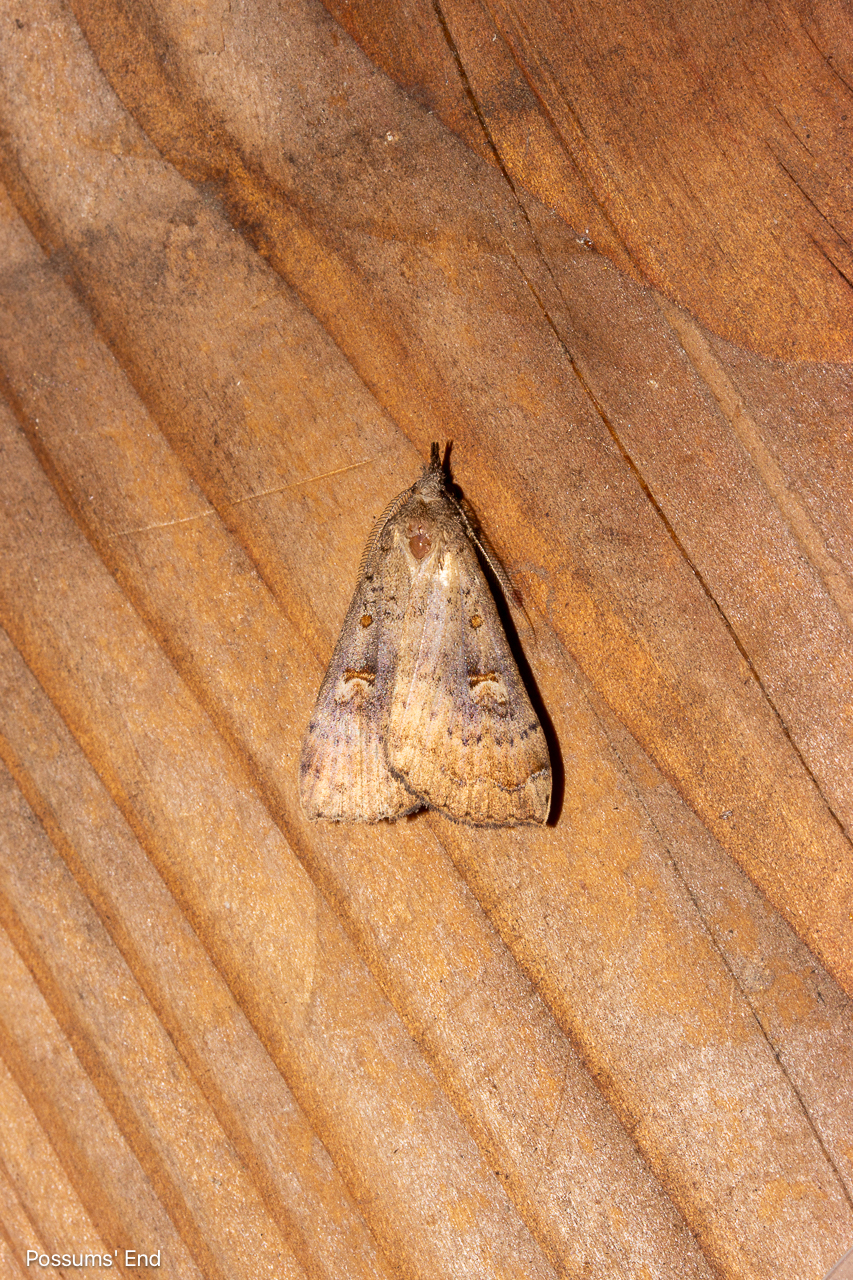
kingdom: Animalia
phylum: Arthropoda
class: Insecta
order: Lepidoptera
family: Erebidae
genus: Rhapsa
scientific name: Rhapsa scotosialis
